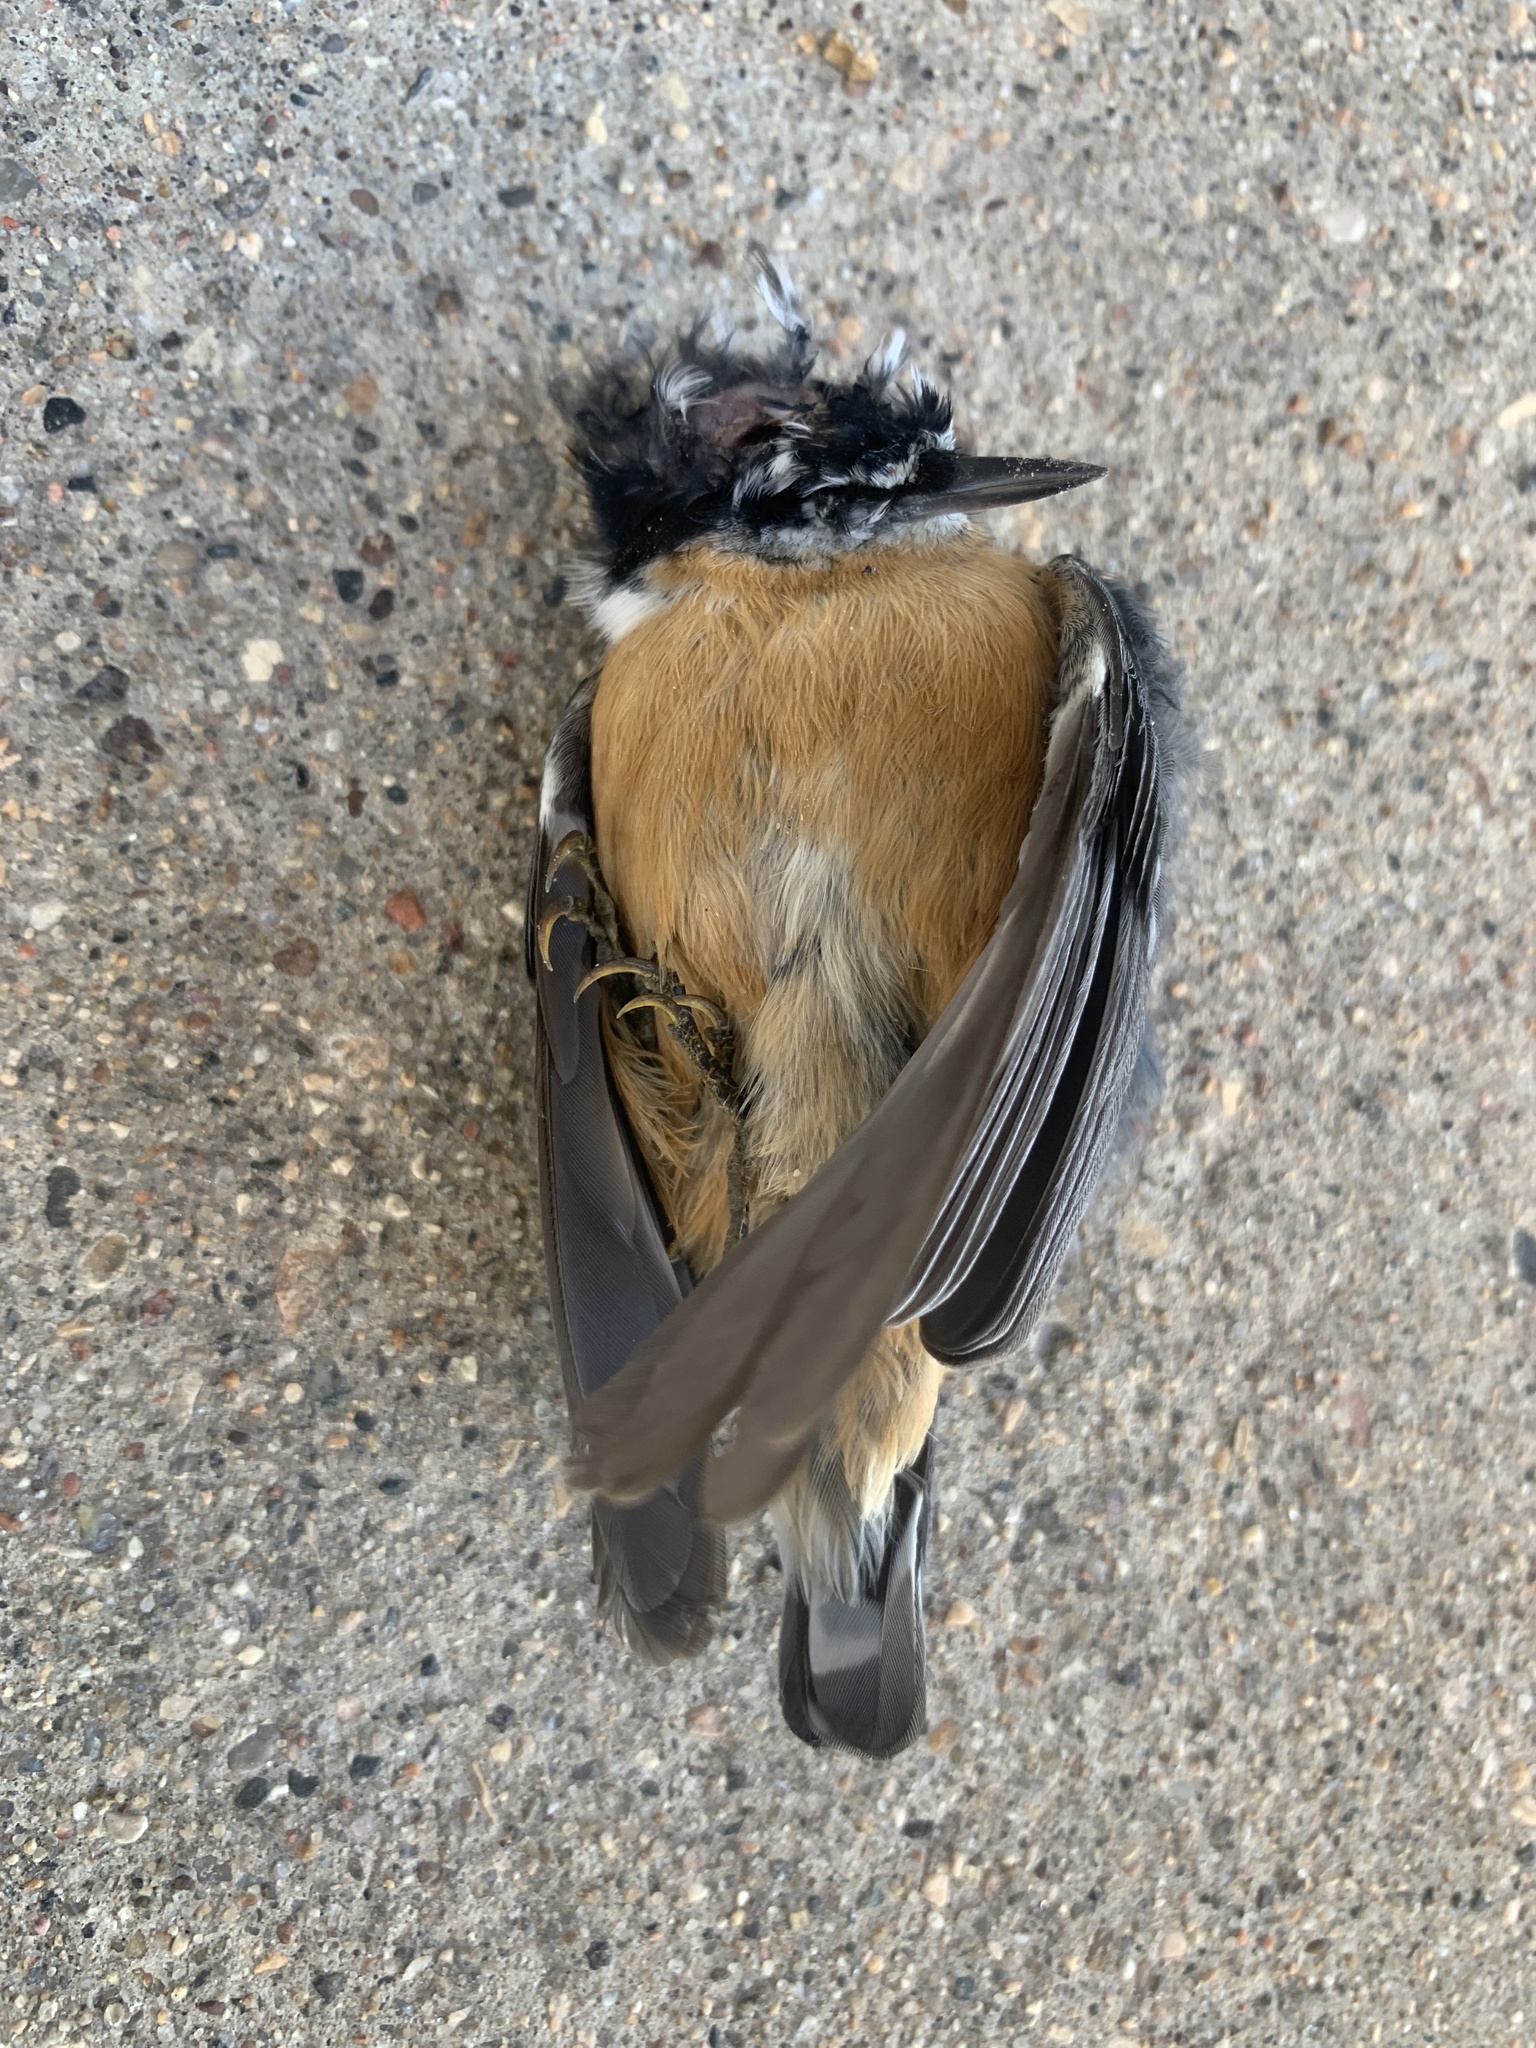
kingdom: Animalia
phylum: Chordata
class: Aves
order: Passeriformes
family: Sittidae
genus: Sitta
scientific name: Sitta canadensis
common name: Red-breasted nuthatch
